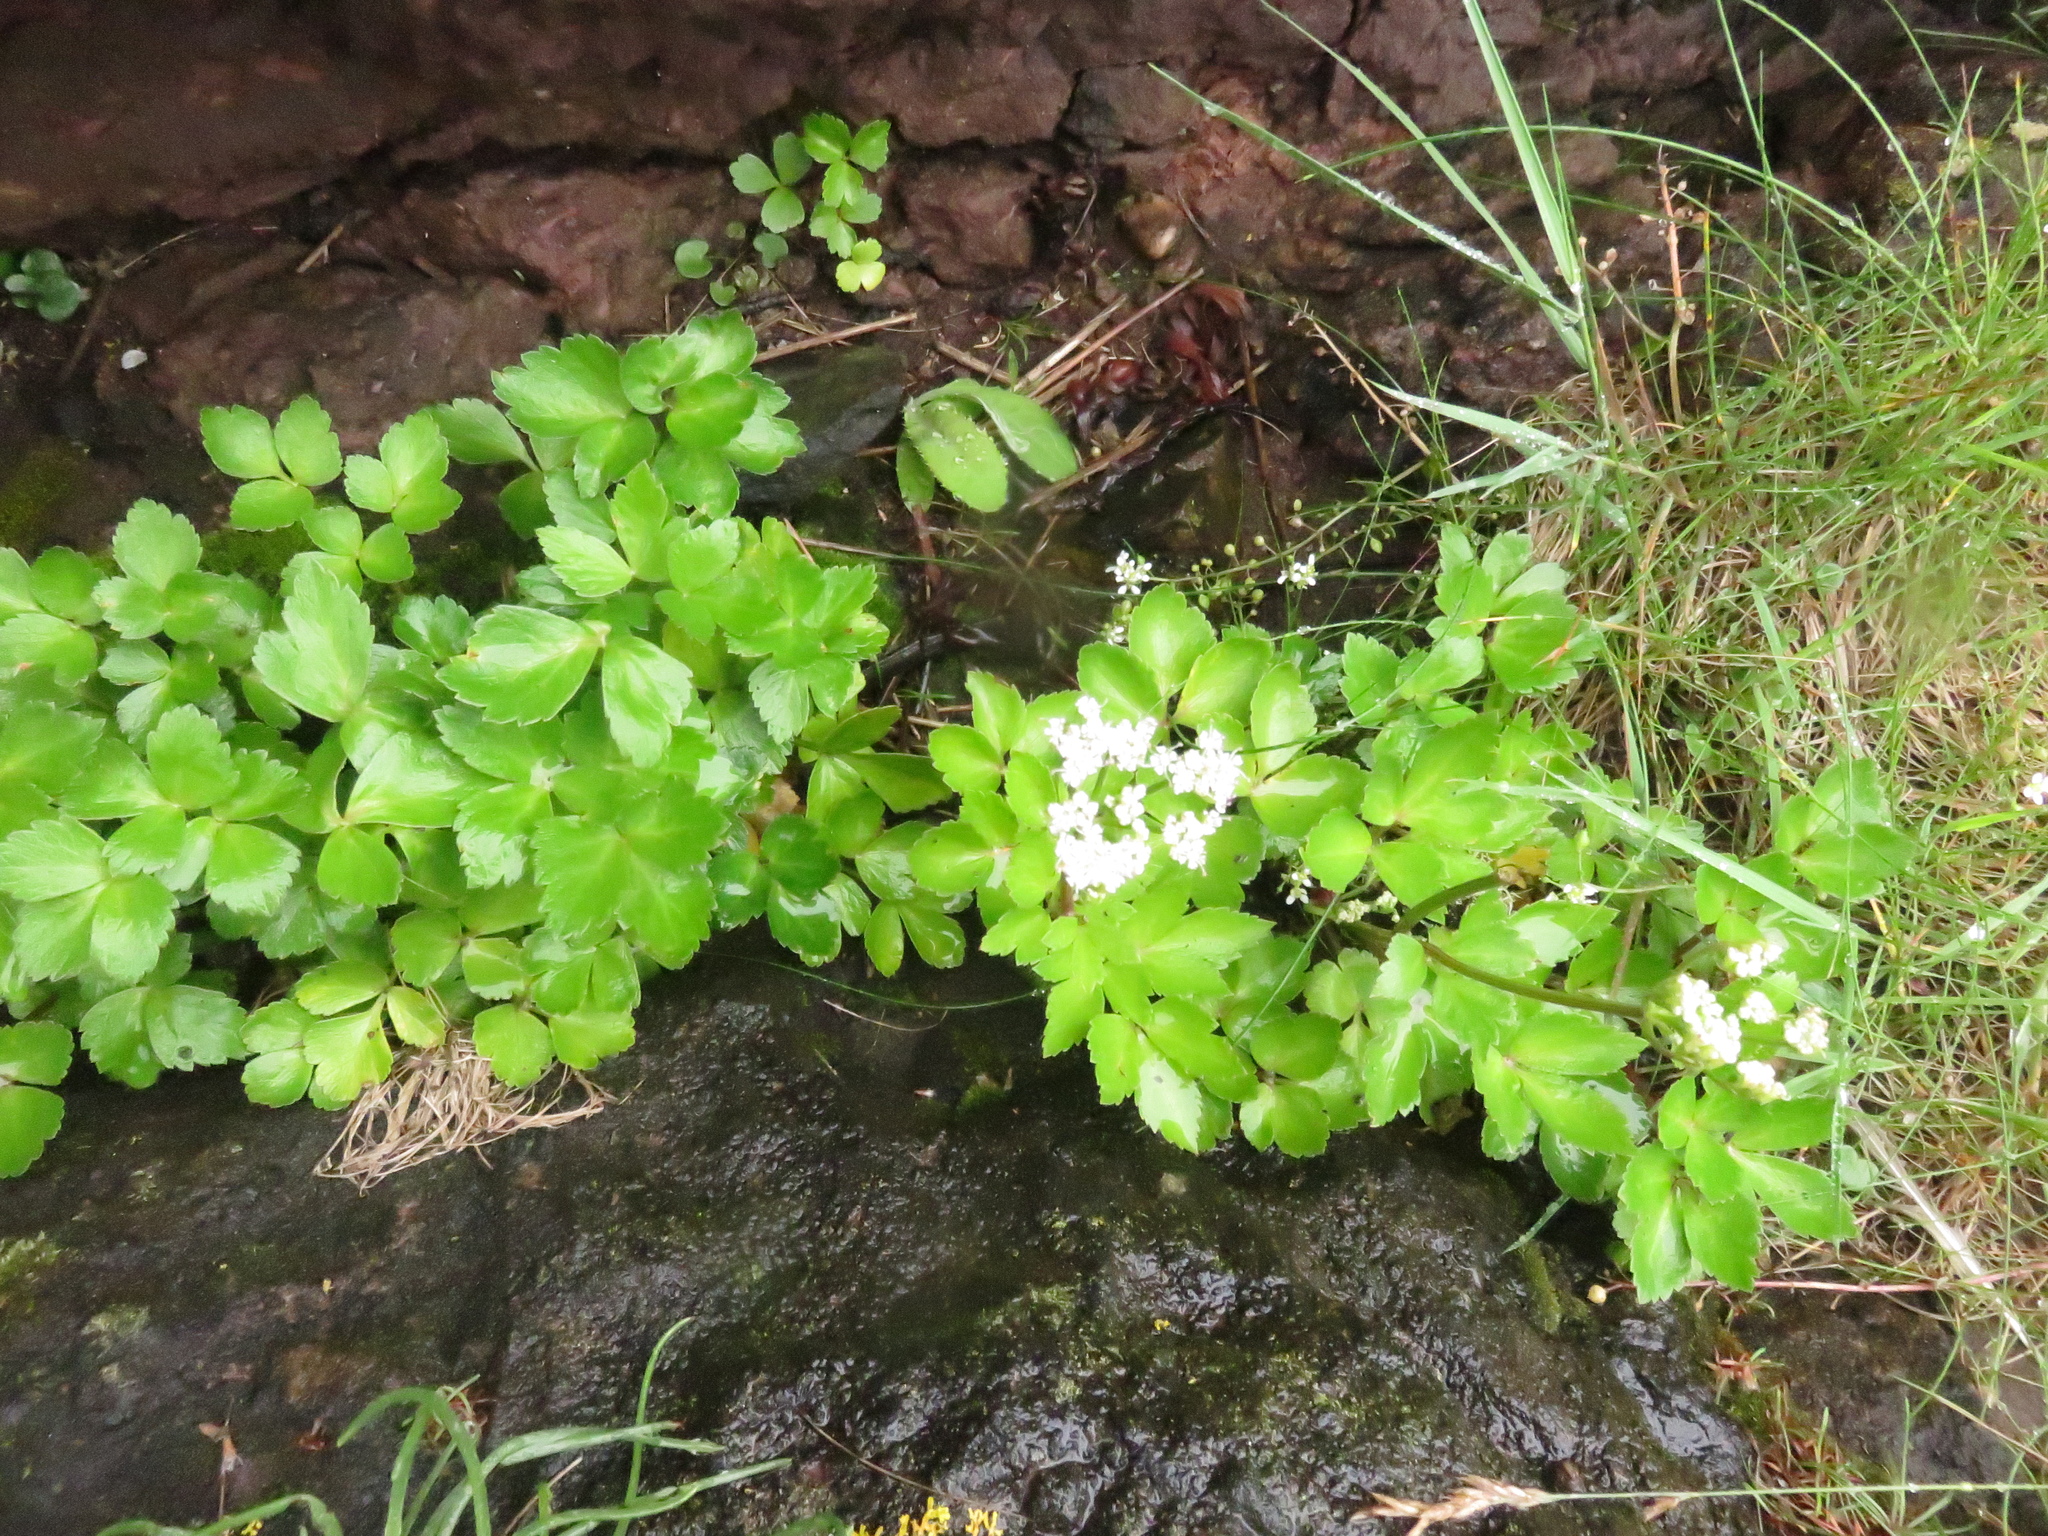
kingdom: Plantae
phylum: Tracheophyta
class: Magnoliopsida
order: Apiales
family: Apiaceae
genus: Ligusticum
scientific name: Ligusticum scothicum
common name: Beach lovage
